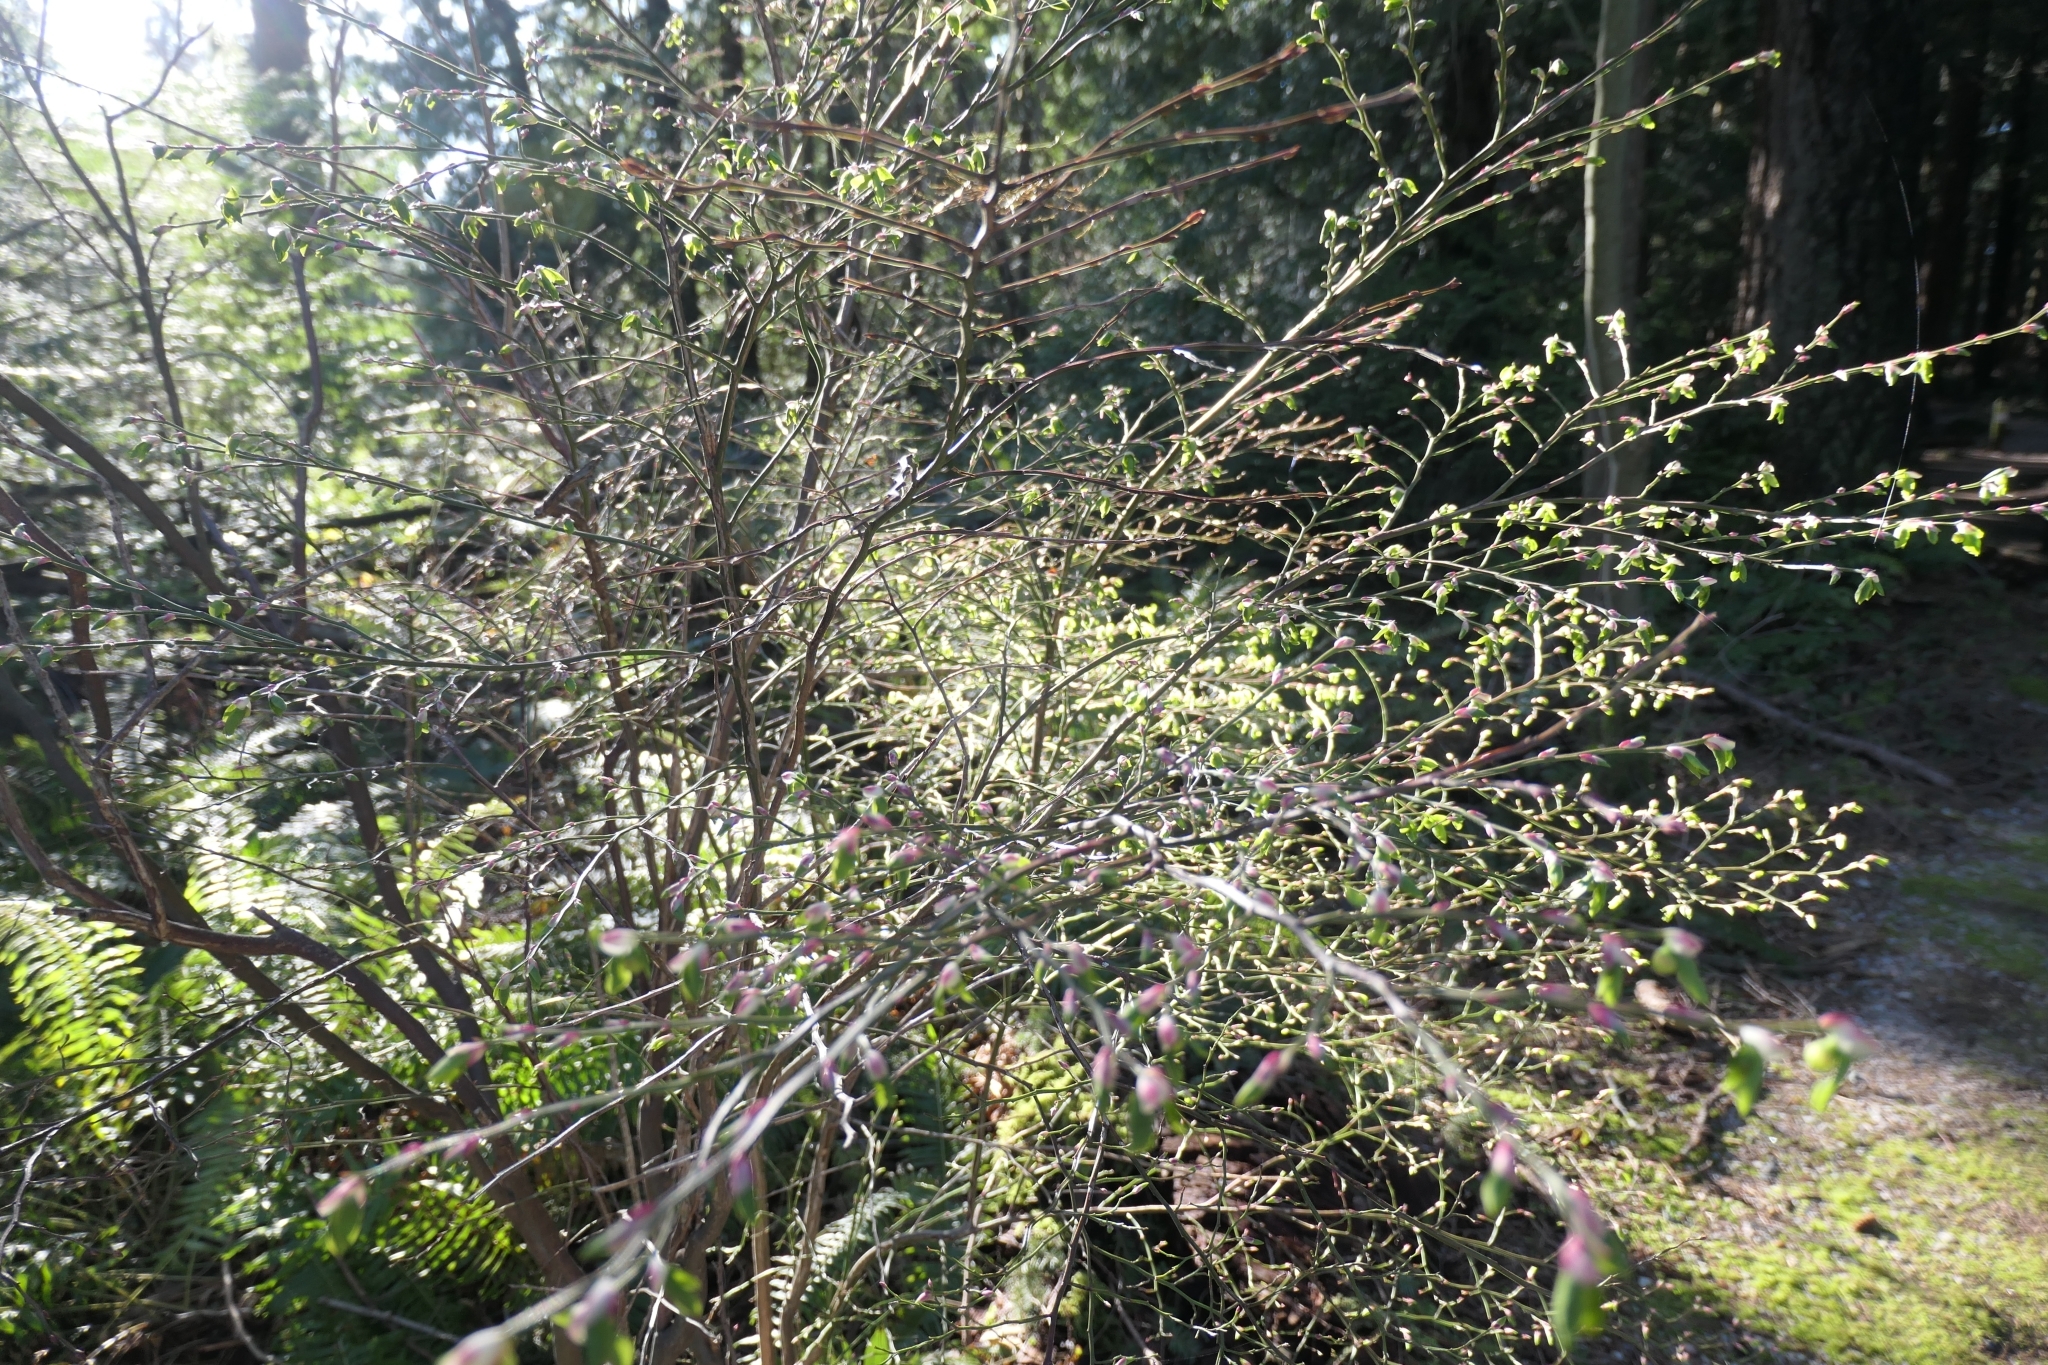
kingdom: Plantae
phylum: Tracheophyta
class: Magnoliopsida
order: Ericales
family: Ericaceae
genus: Vaccinium
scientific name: Vaccinium parvifolium
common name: Red-huckleberry
